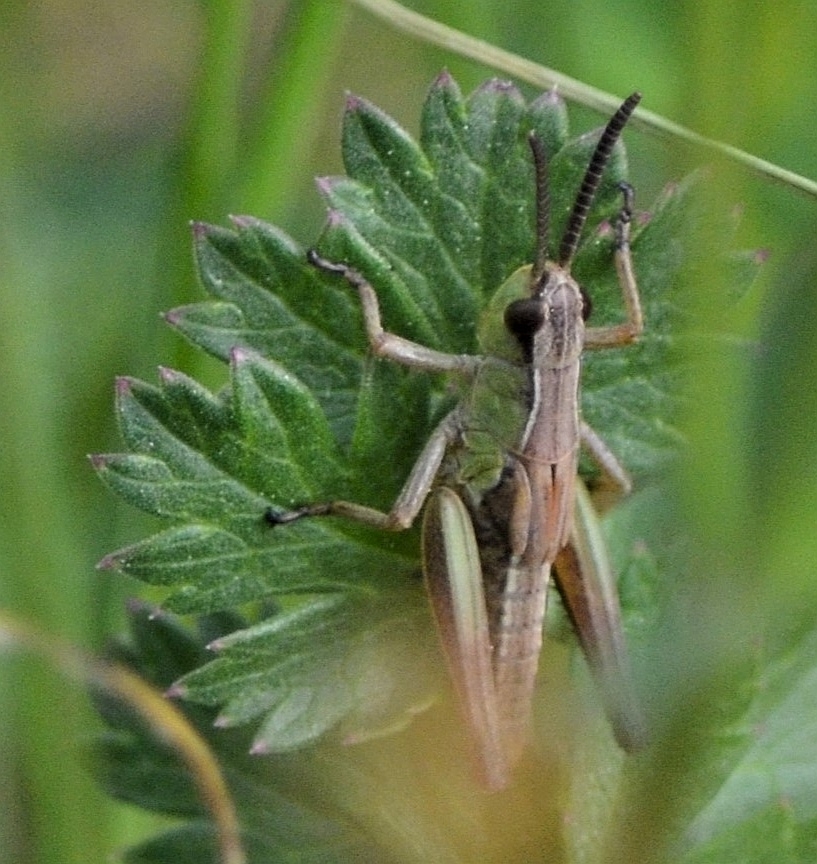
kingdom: Animalia
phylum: Arthropoda
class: Insecta
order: Orthoptera
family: Acrididae
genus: Pseudochorthippus
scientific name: Pseudochorthippus parallelus
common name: Meadow grasshopper
